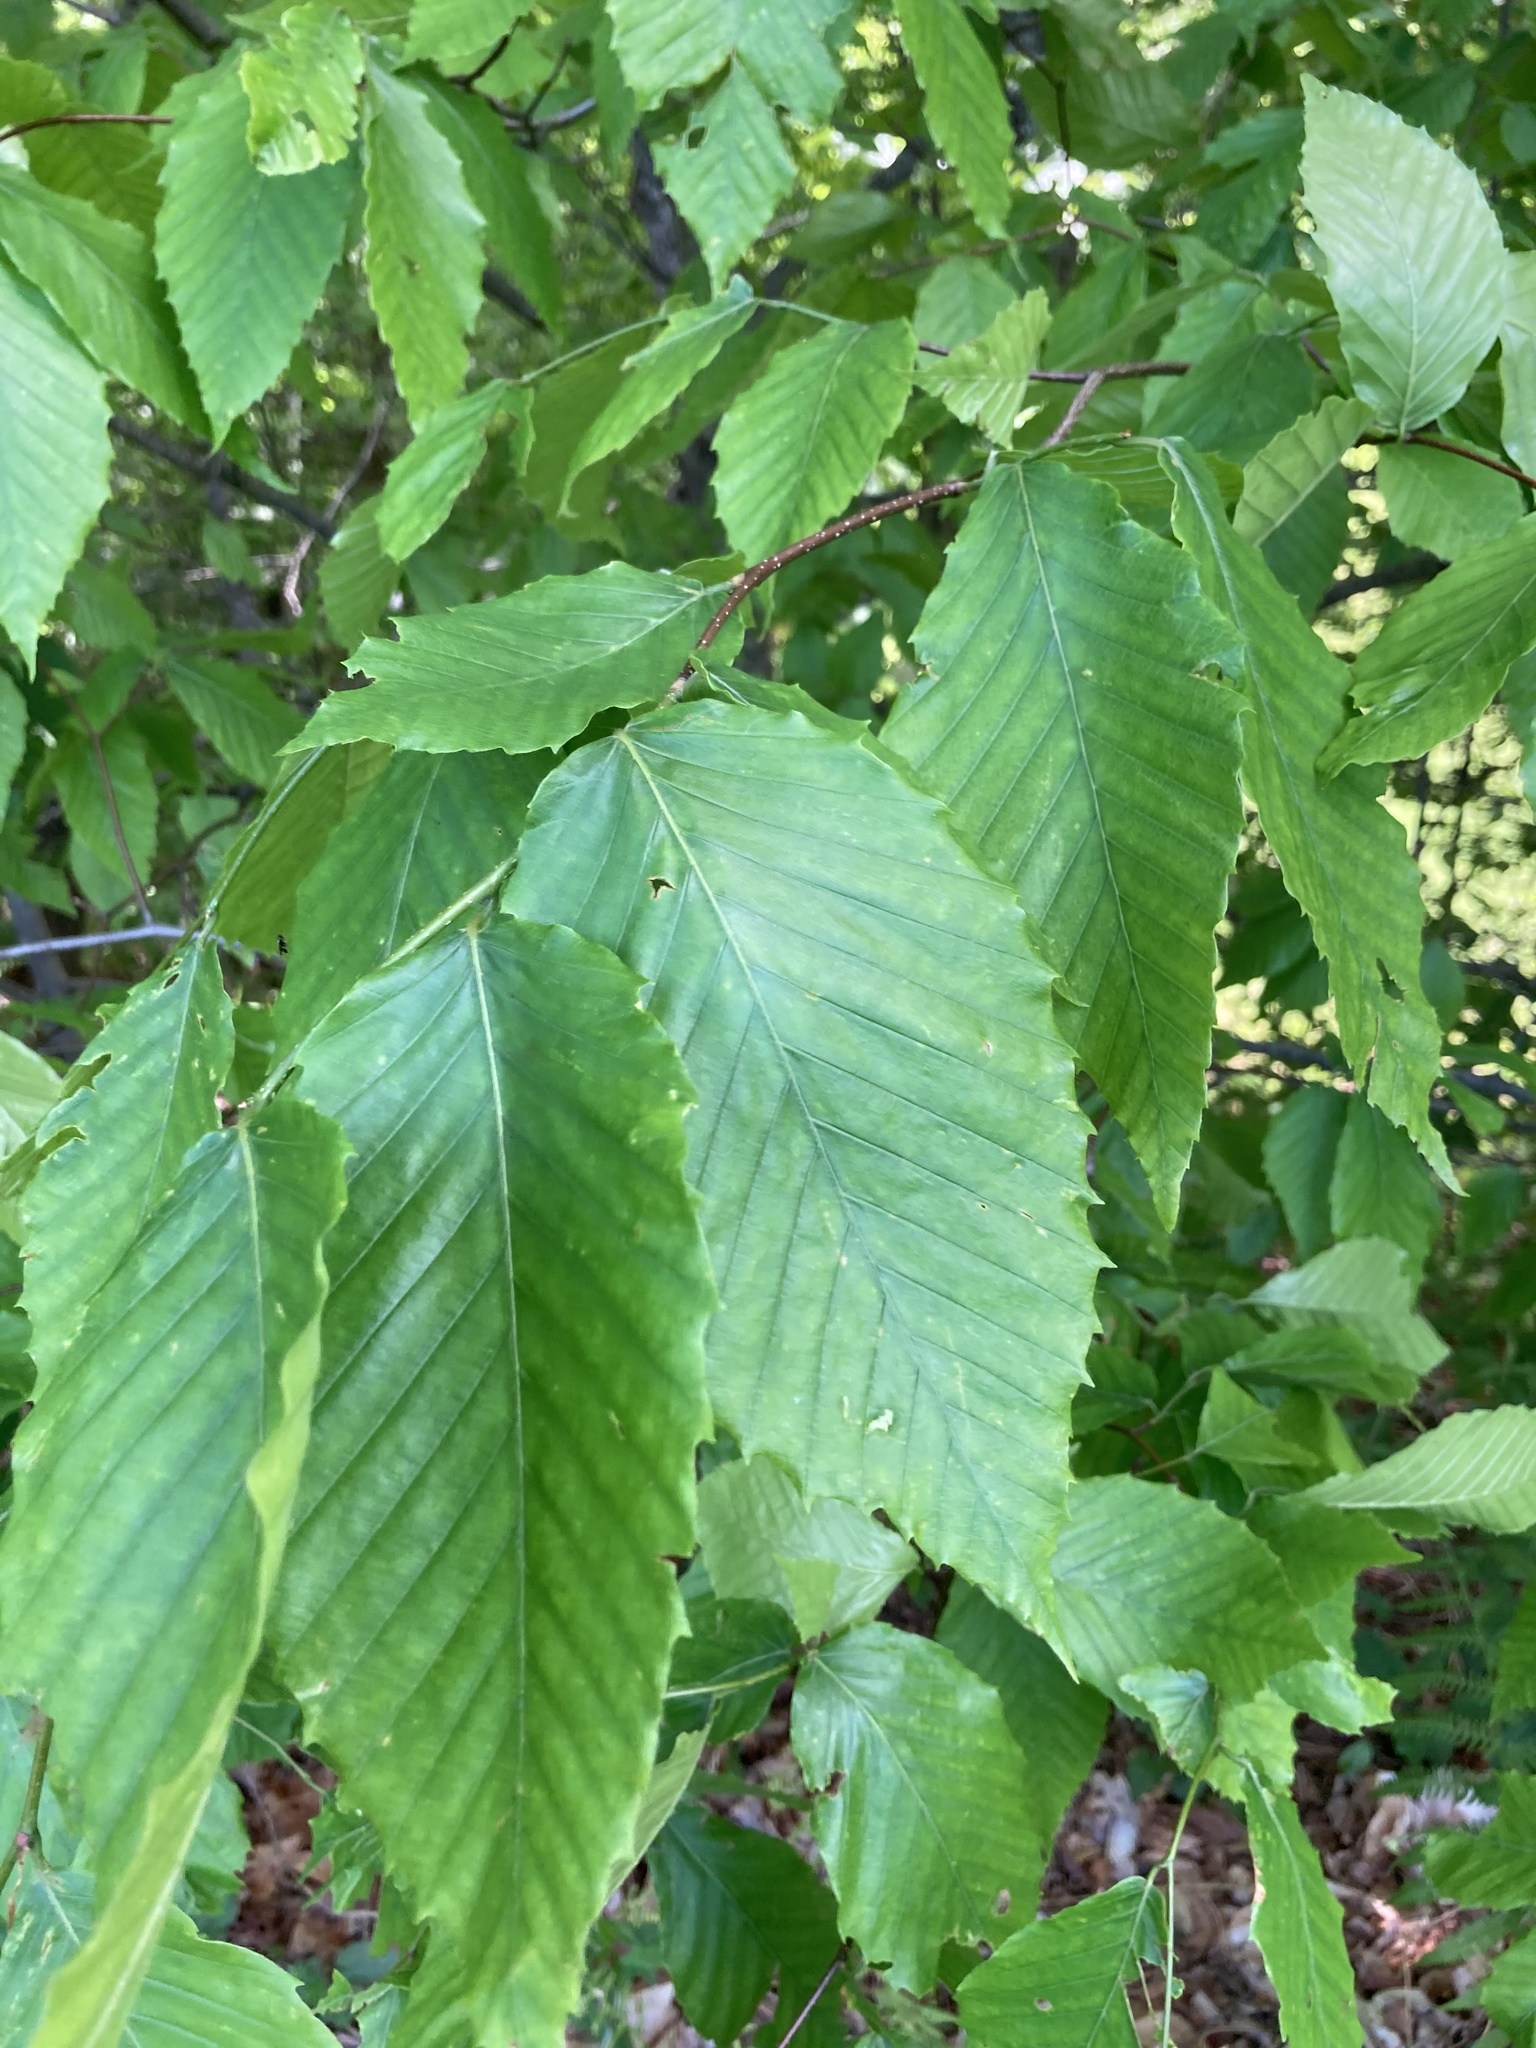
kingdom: Plantae
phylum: Tracheophyta
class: Magnoliopsida
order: Fagales
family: Fagaceae
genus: Fagus
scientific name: Fagus grandifolia
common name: American beech
